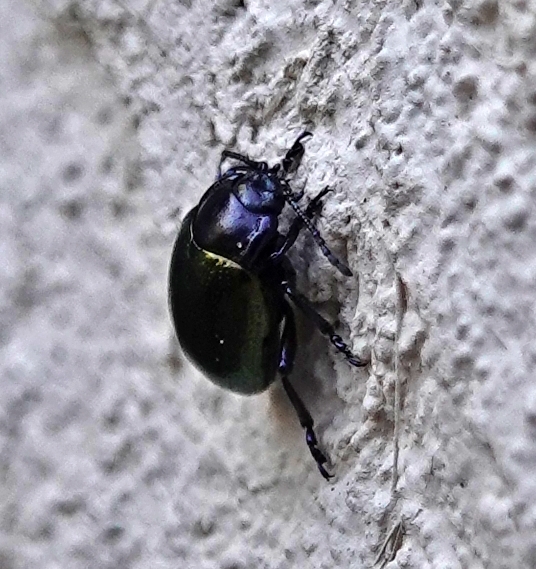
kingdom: Animalia
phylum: Arthropoda
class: Insecta
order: Coleoptera
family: Chrysomelidae
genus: Chrysolina
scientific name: Chrysolina auripennis
